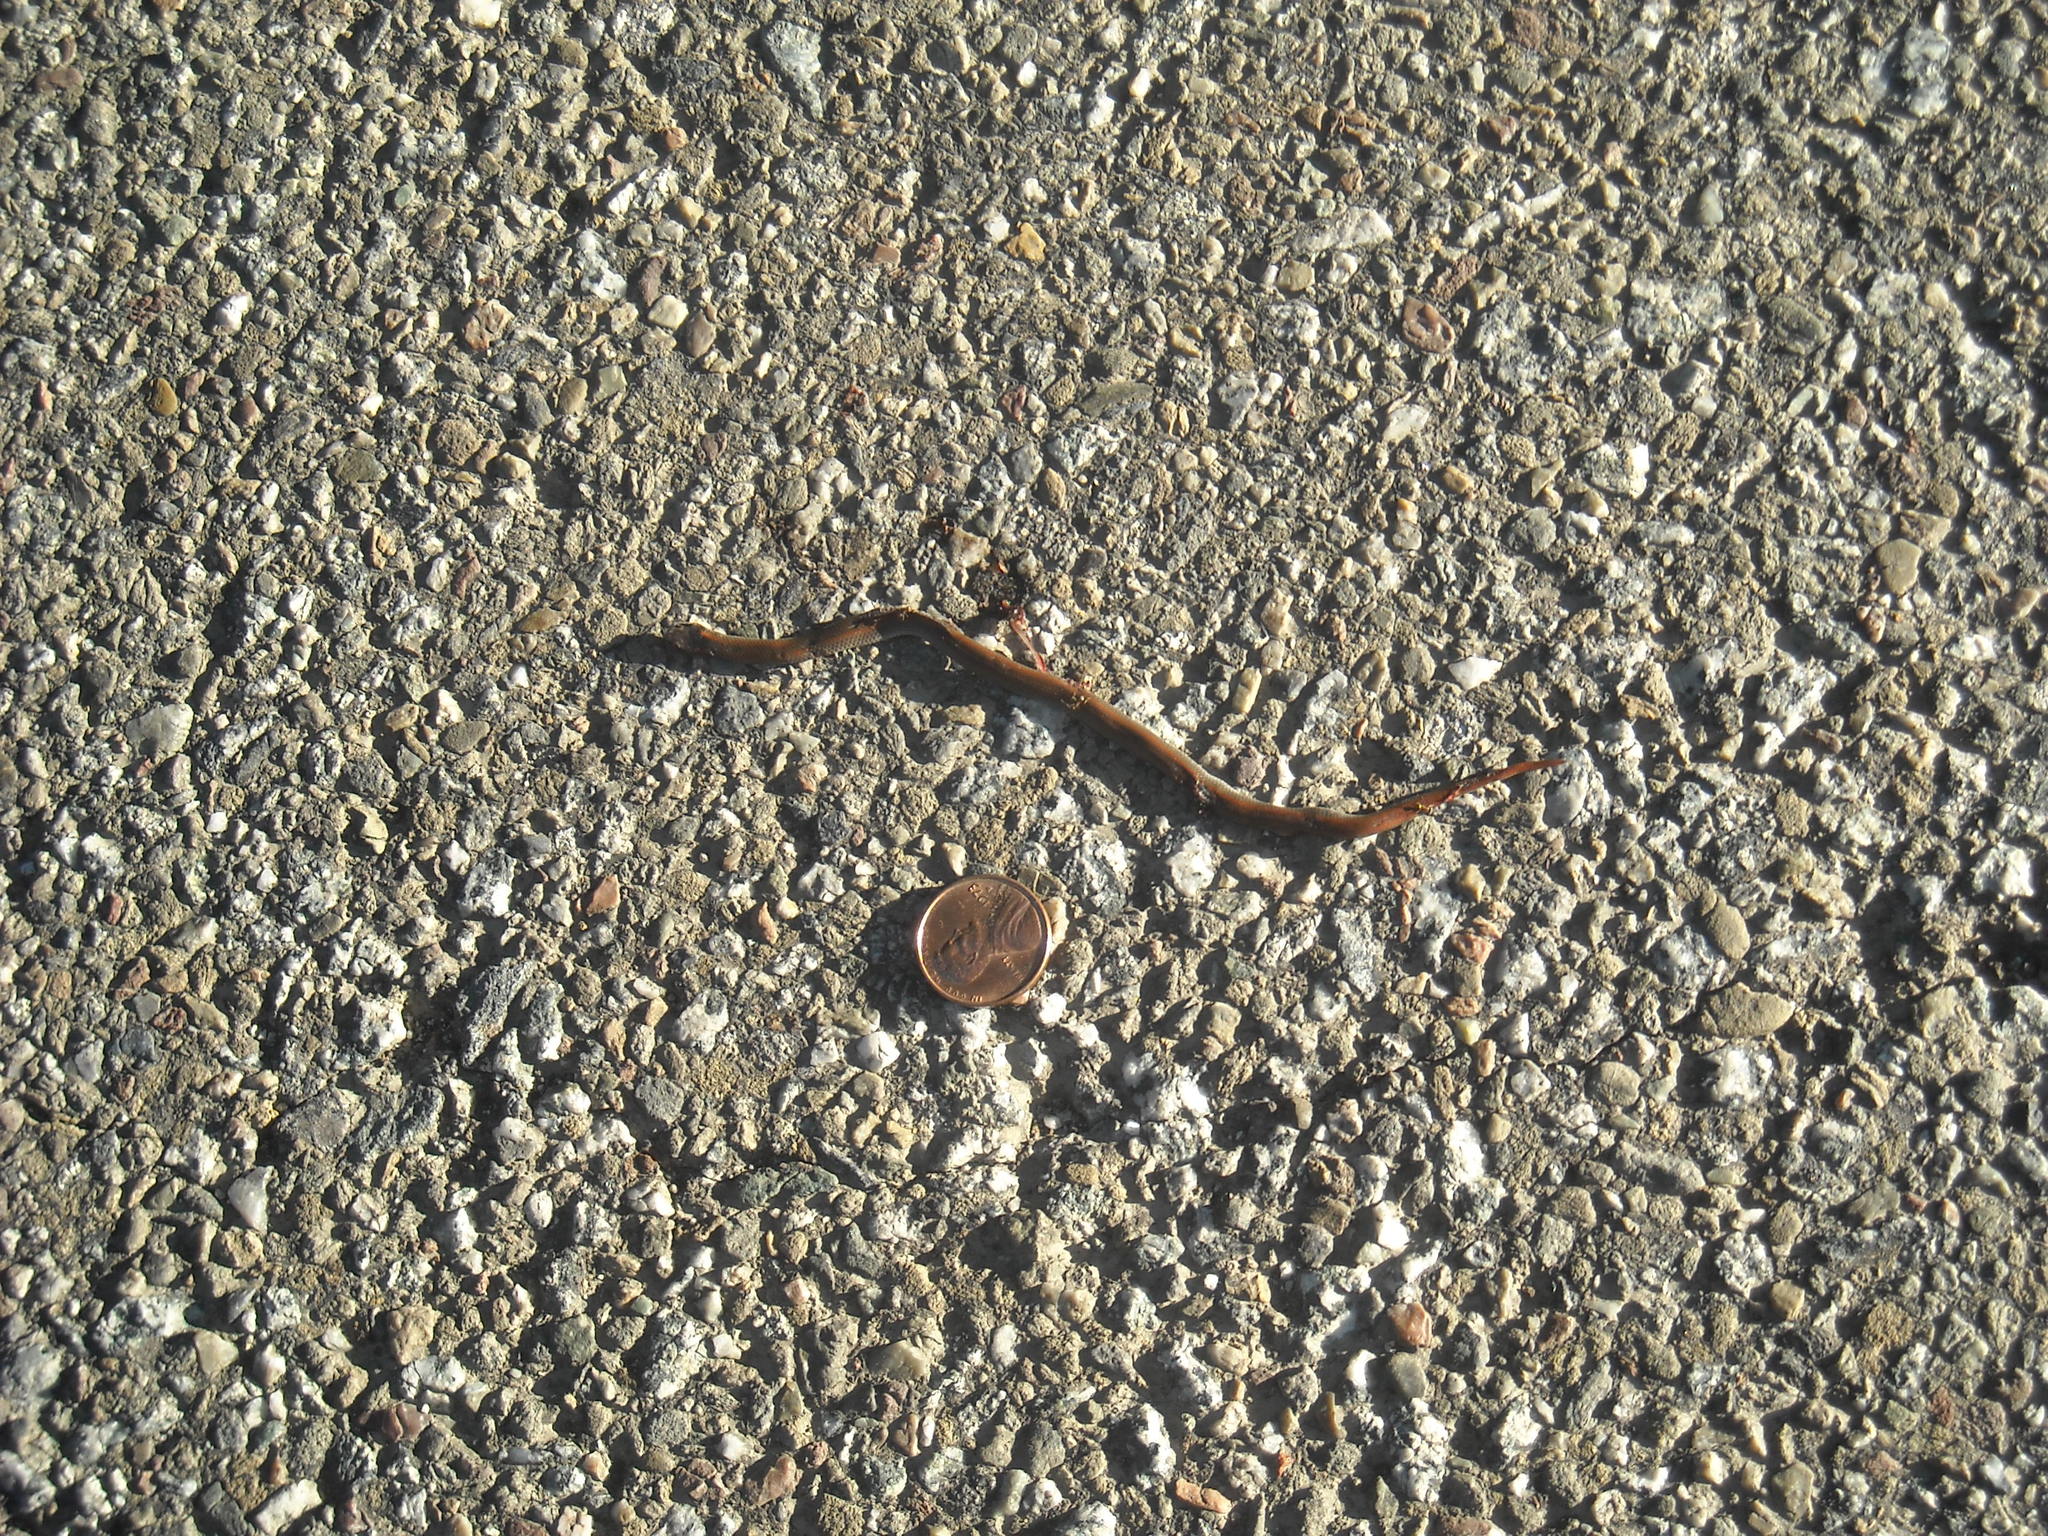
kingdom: Animalia
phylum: Chordata
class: Squamata
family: Colubridae
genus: Contia
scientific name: Contia longicaudae
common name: Forest sharp-tailed snake
